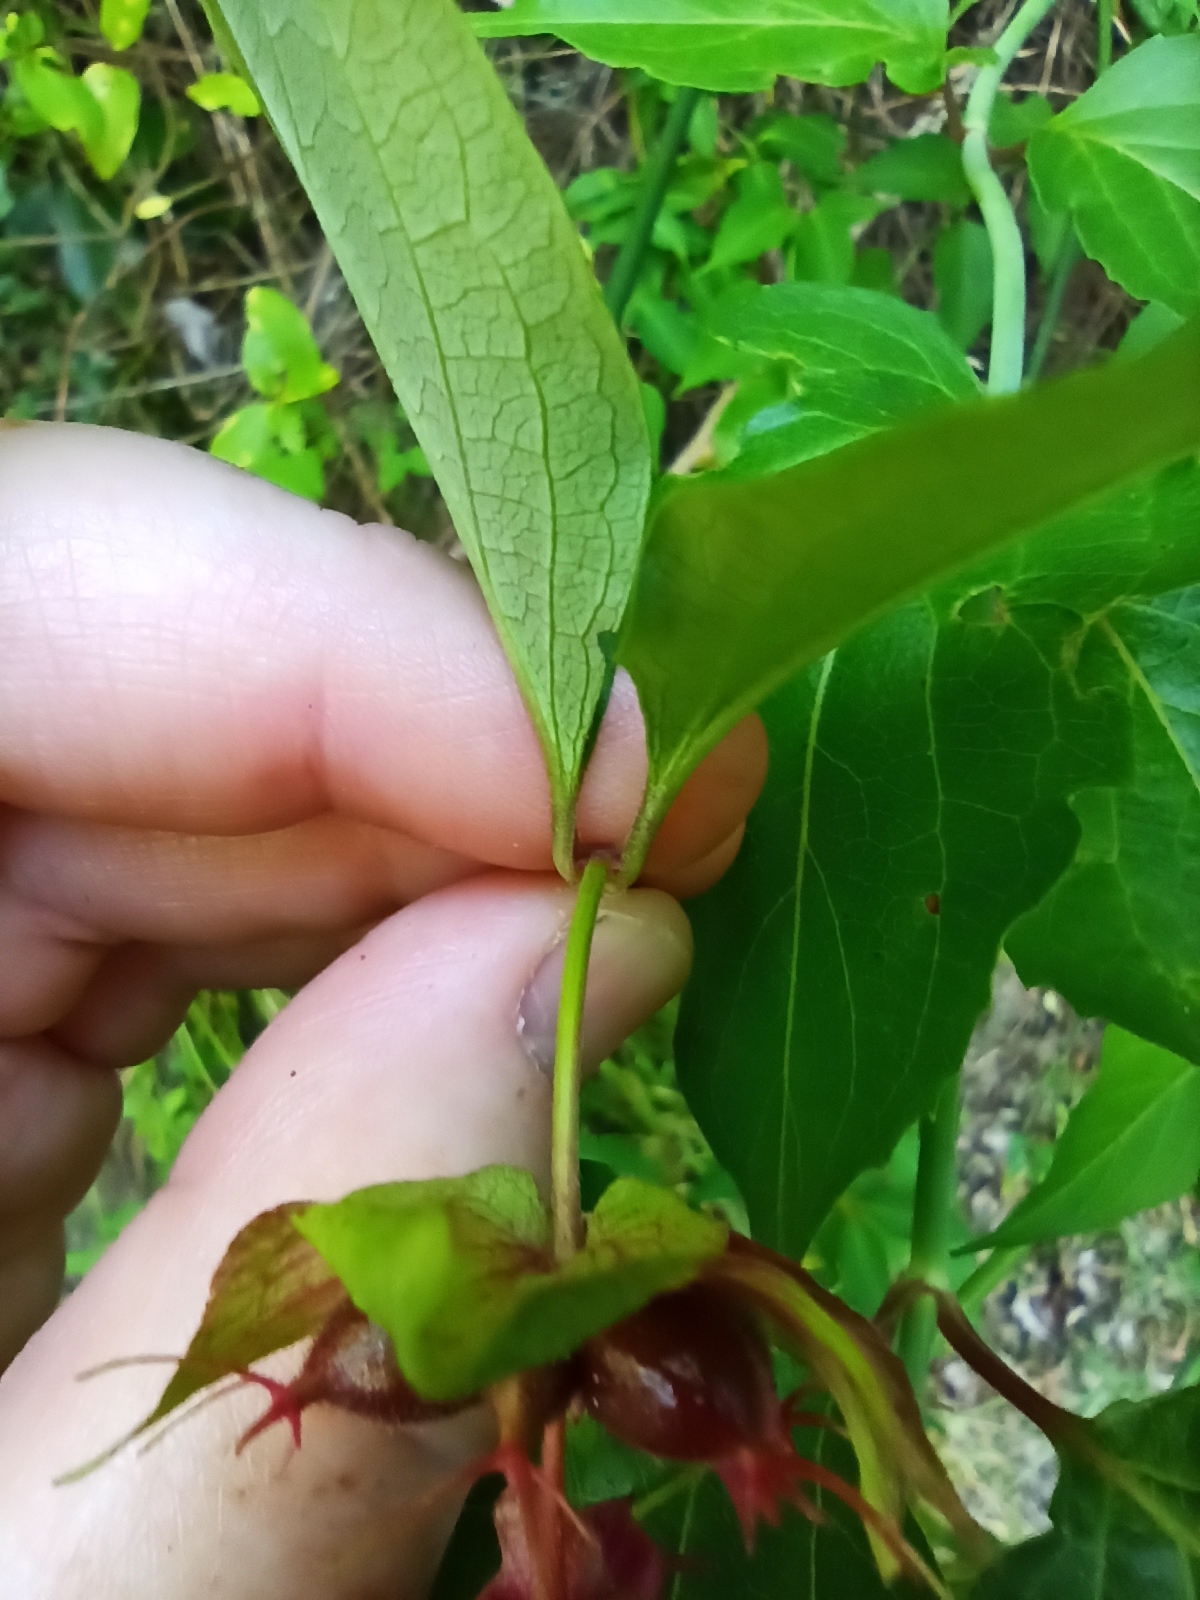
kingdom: Plantae
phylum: Tracheophyta
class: Magnoliopsida
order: Dipsacales
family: Caprifoliaceae
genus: Leycesteria
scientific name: Leycesteria formosa
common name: Himalayan honeysuckle
